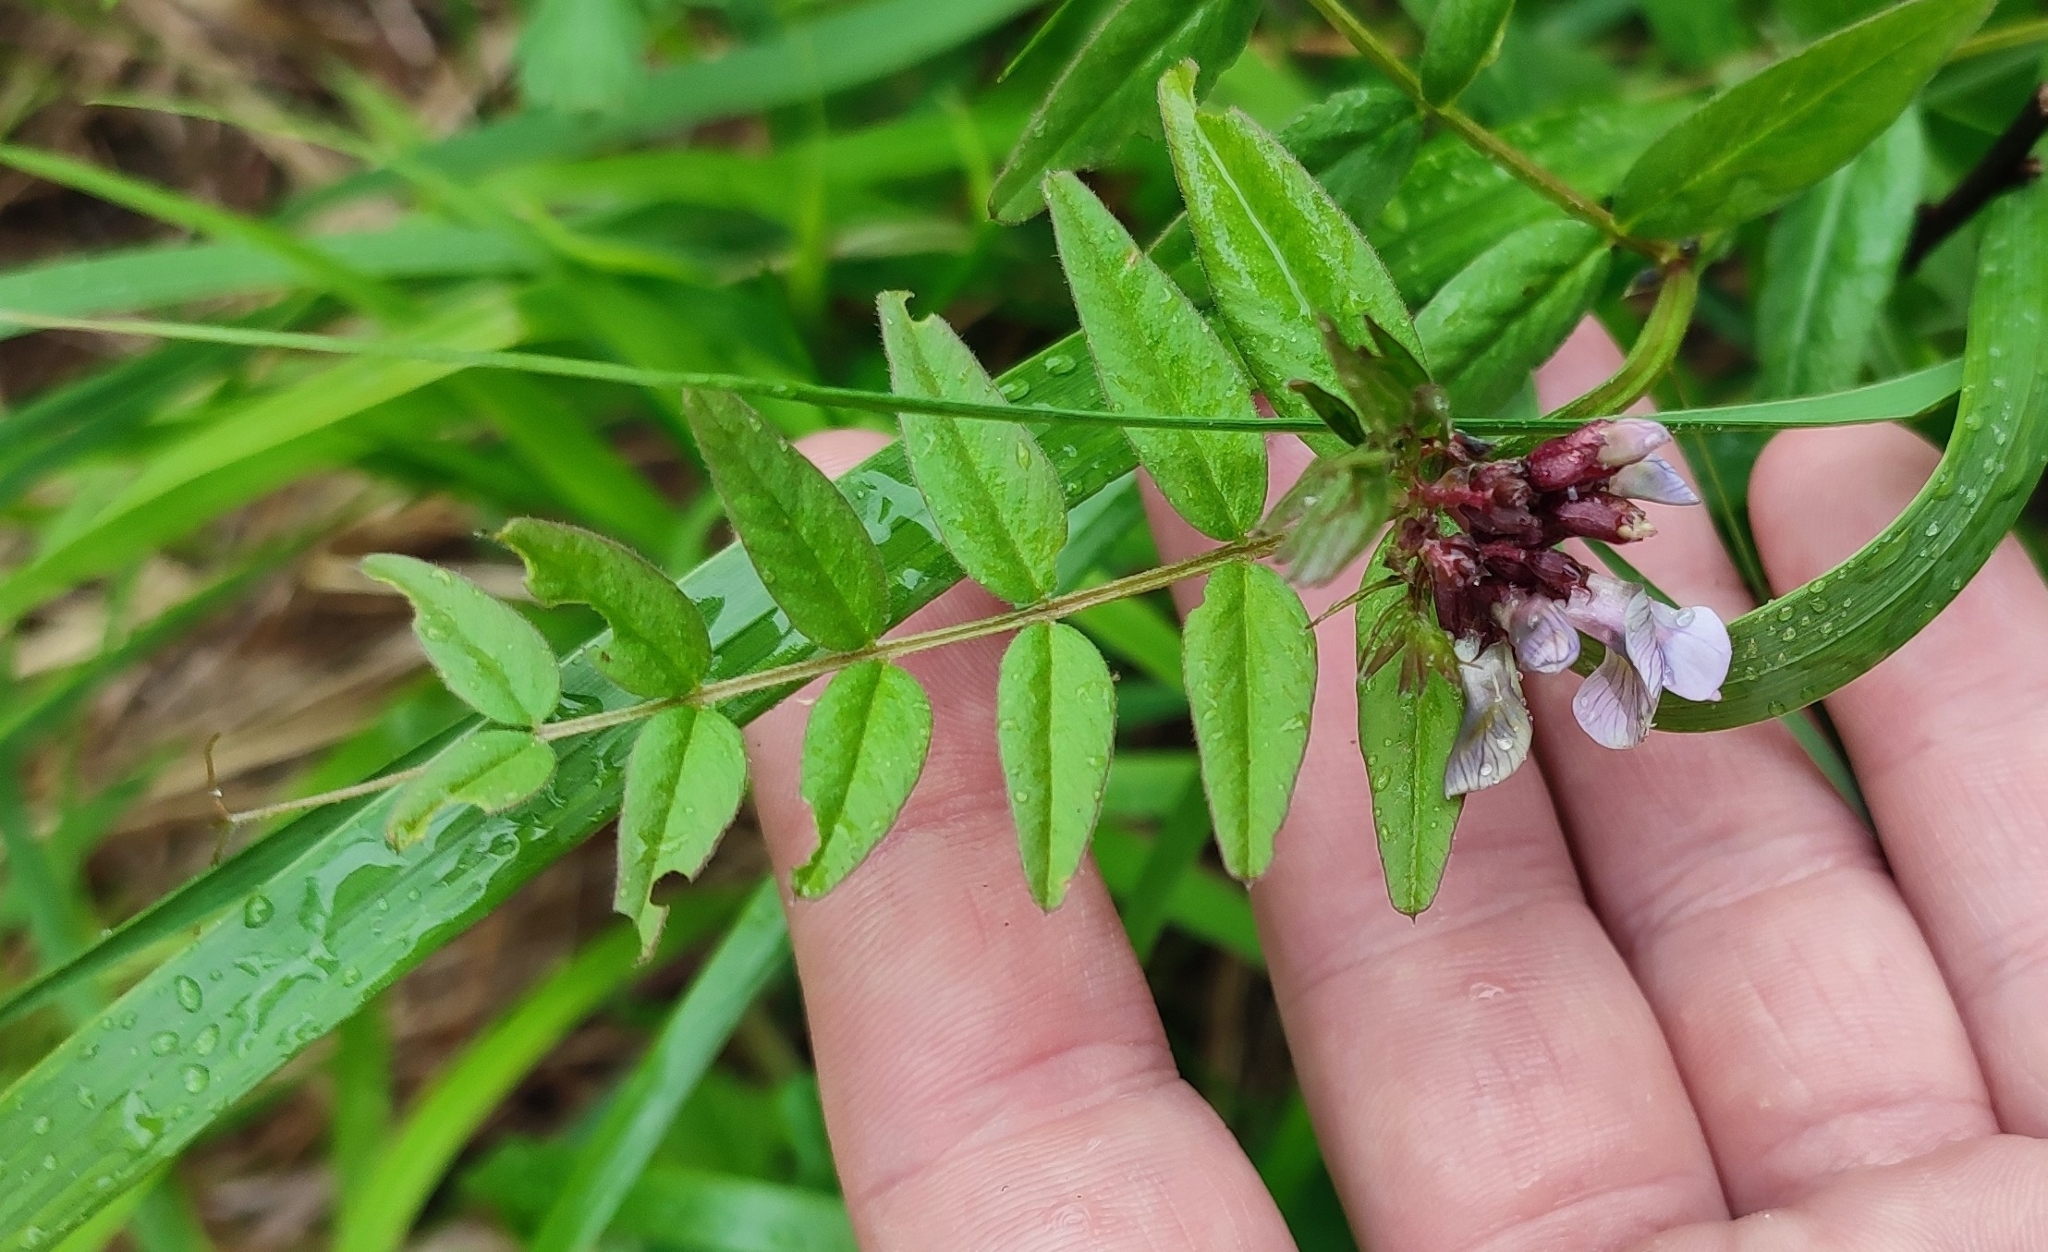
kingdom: Plantae
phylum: Tracheophyta
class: Magnoliopsida
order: Fabales
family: Fabaceae
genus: Vicia
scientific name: Vicia sepium
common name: Bush vetch
